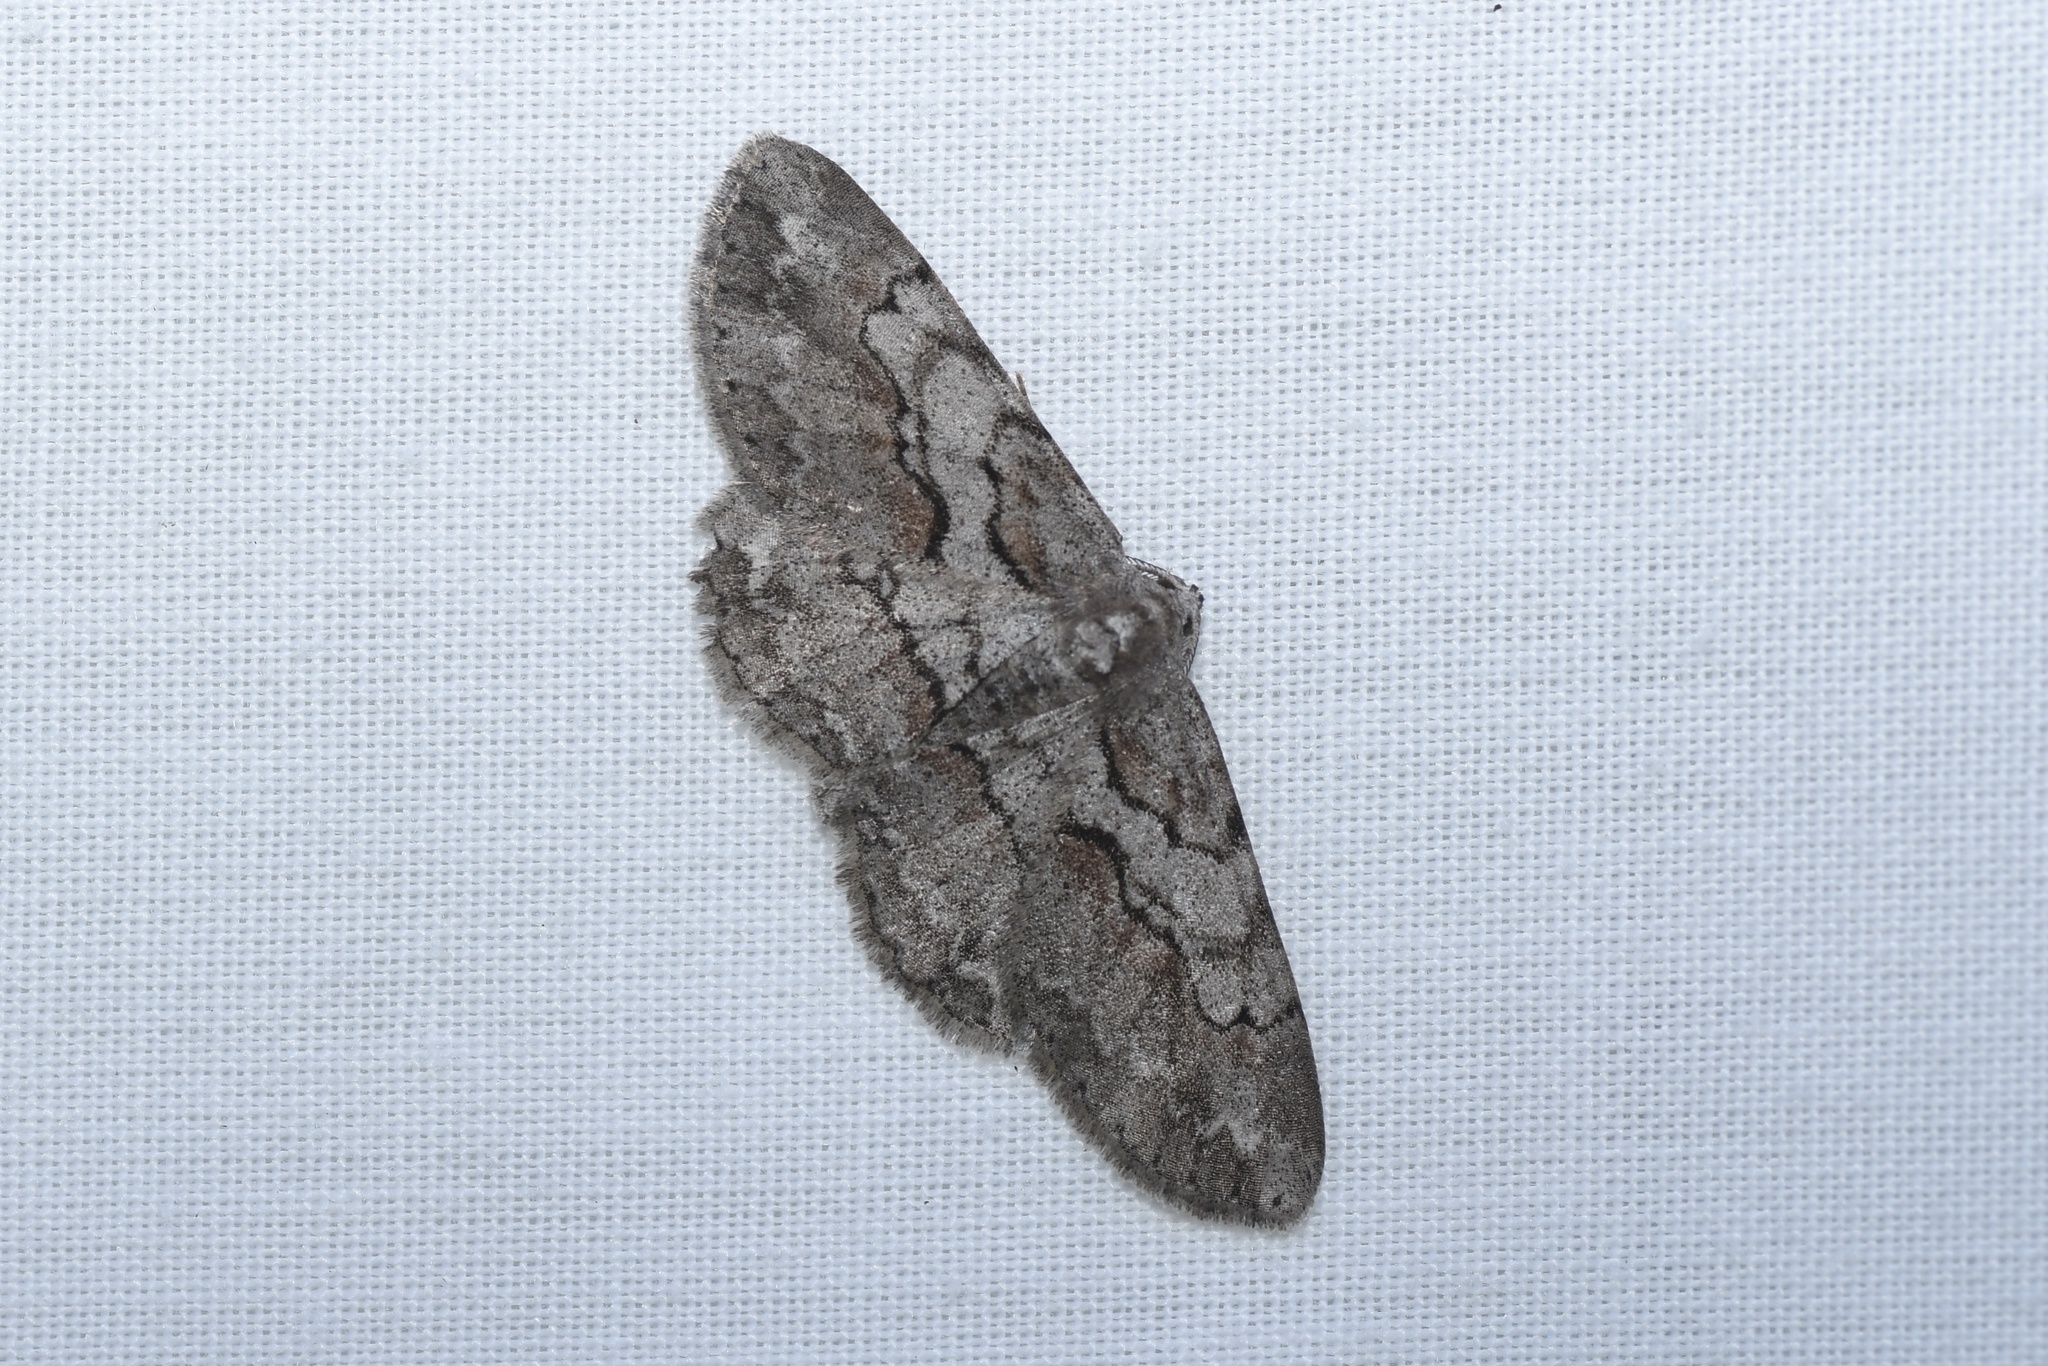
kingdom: Animalia
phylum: Arthropoda
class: Insecta
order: Lepidoptera
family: Geometridae
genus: Iridopsis
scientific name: Iridopsis vellivolata
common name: Large purplish gray
